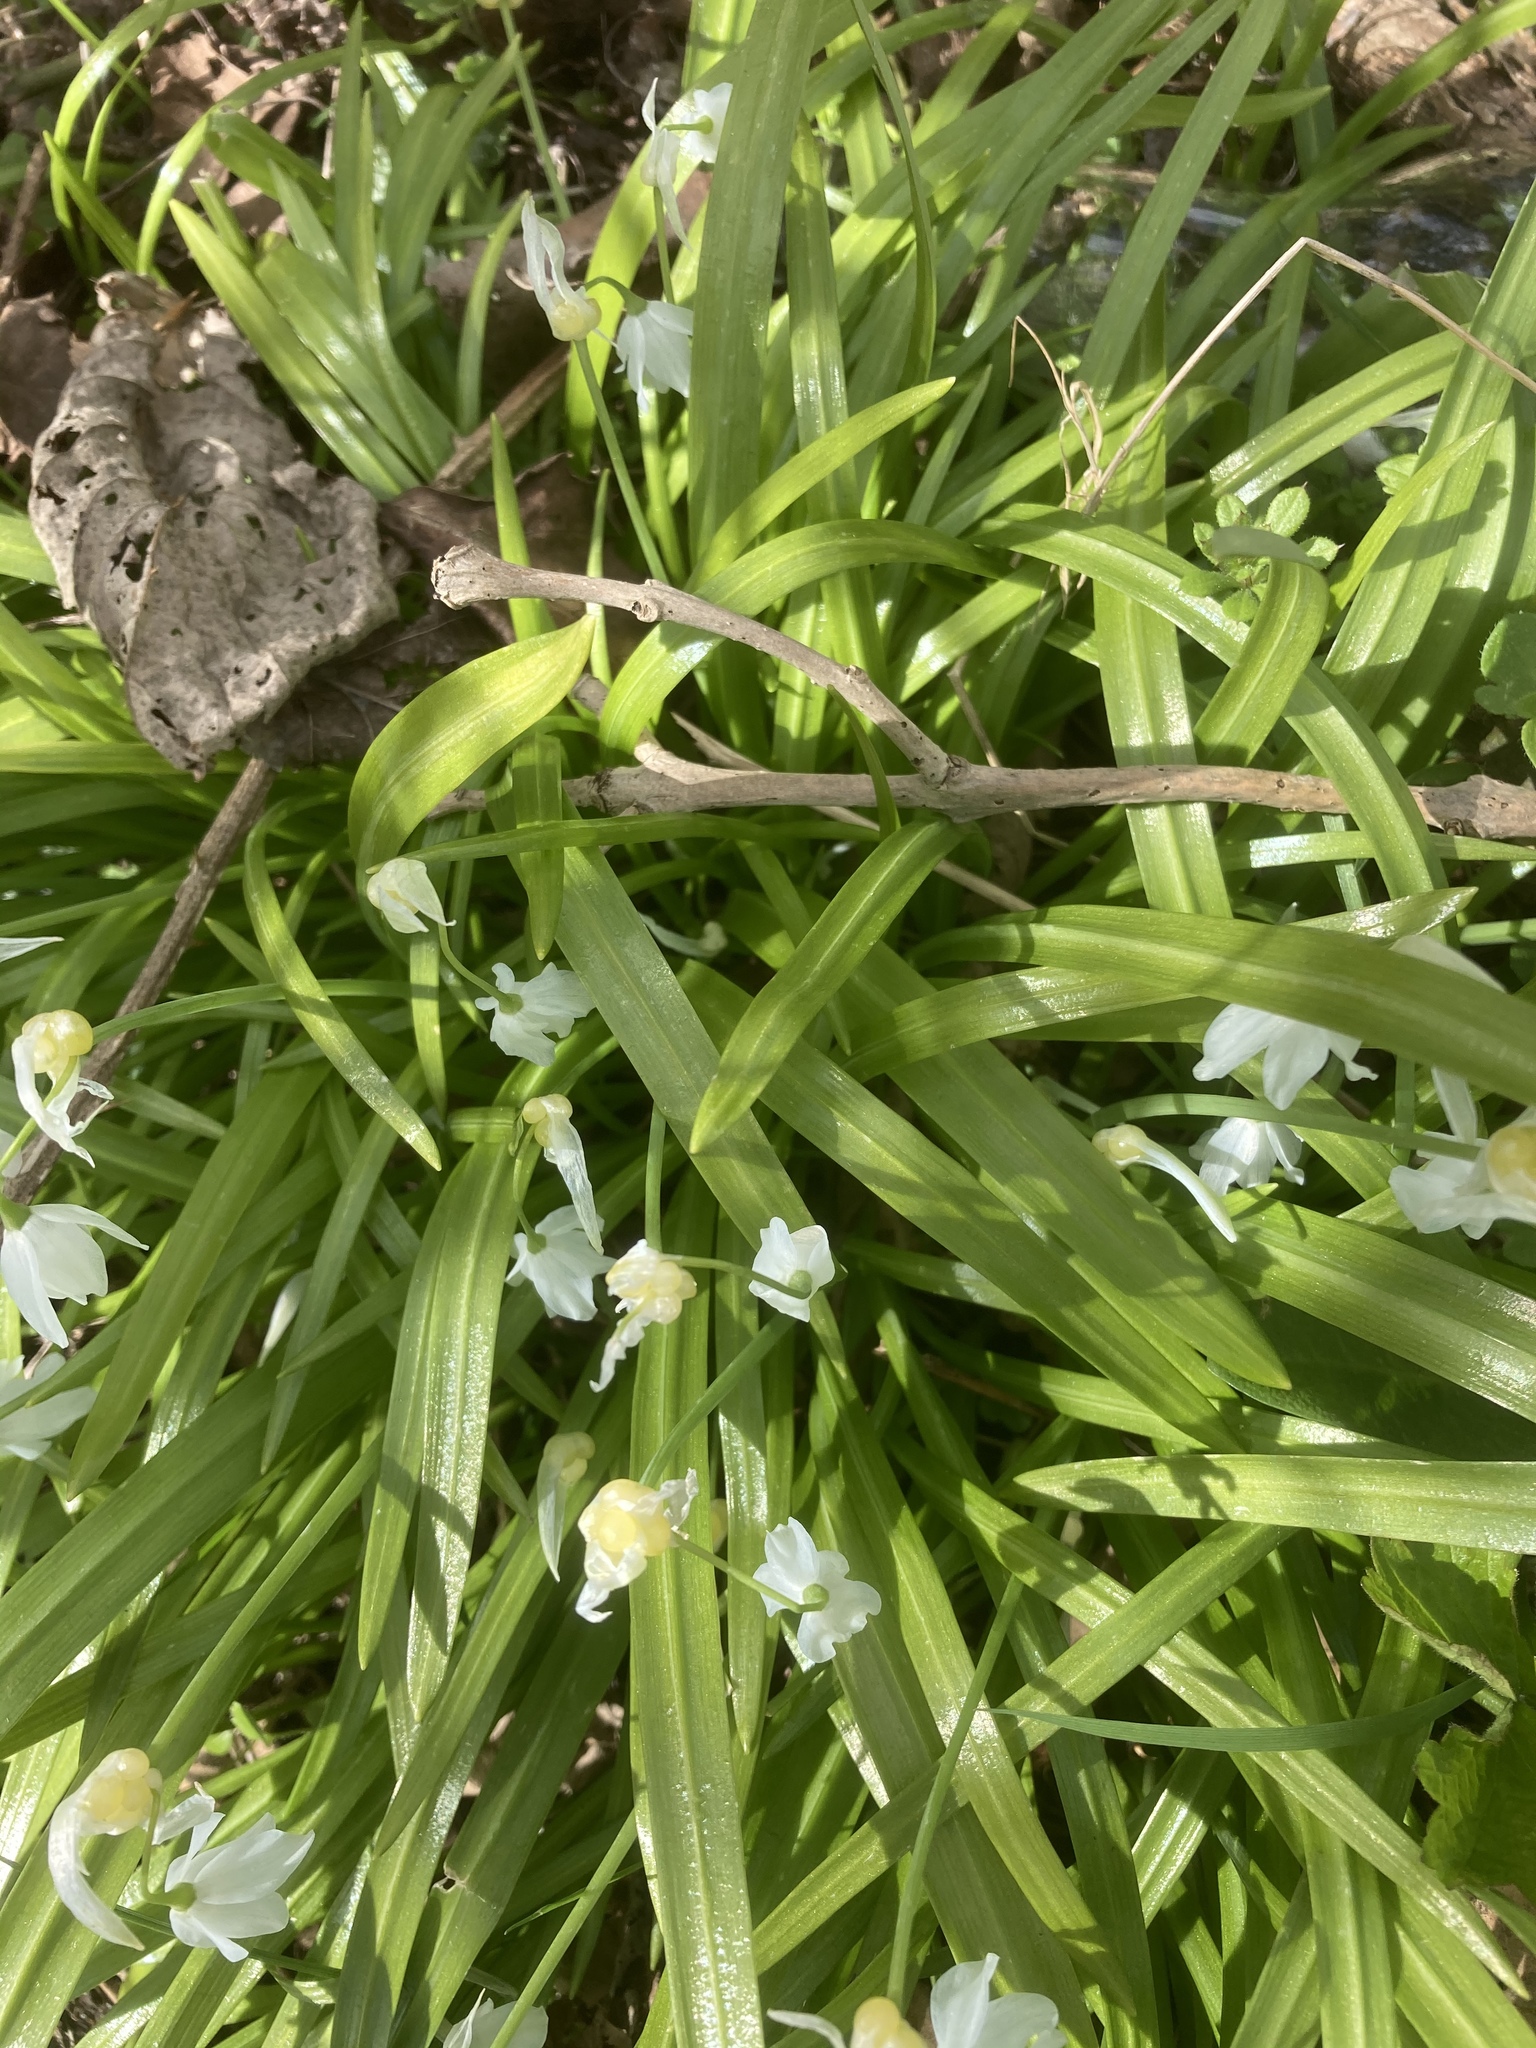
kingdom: Plantae
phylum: Tracheophyta
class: Liliopsida
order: Asparagales
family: Amaryllidaceae
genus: Allium
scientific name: Allium paradoxum
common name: Few-flowered garlic
